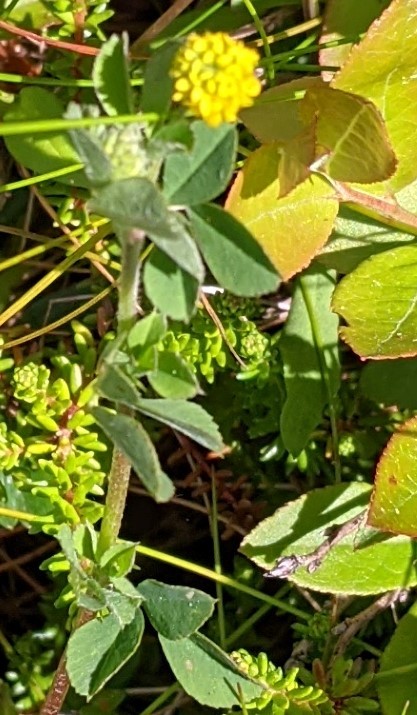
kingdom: Plantae
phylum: Tracheophyta
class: Magnoliopsida
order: Fabales
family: Fabaceae
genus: Medicago
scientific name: Medicago lupulina
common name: Black medick
